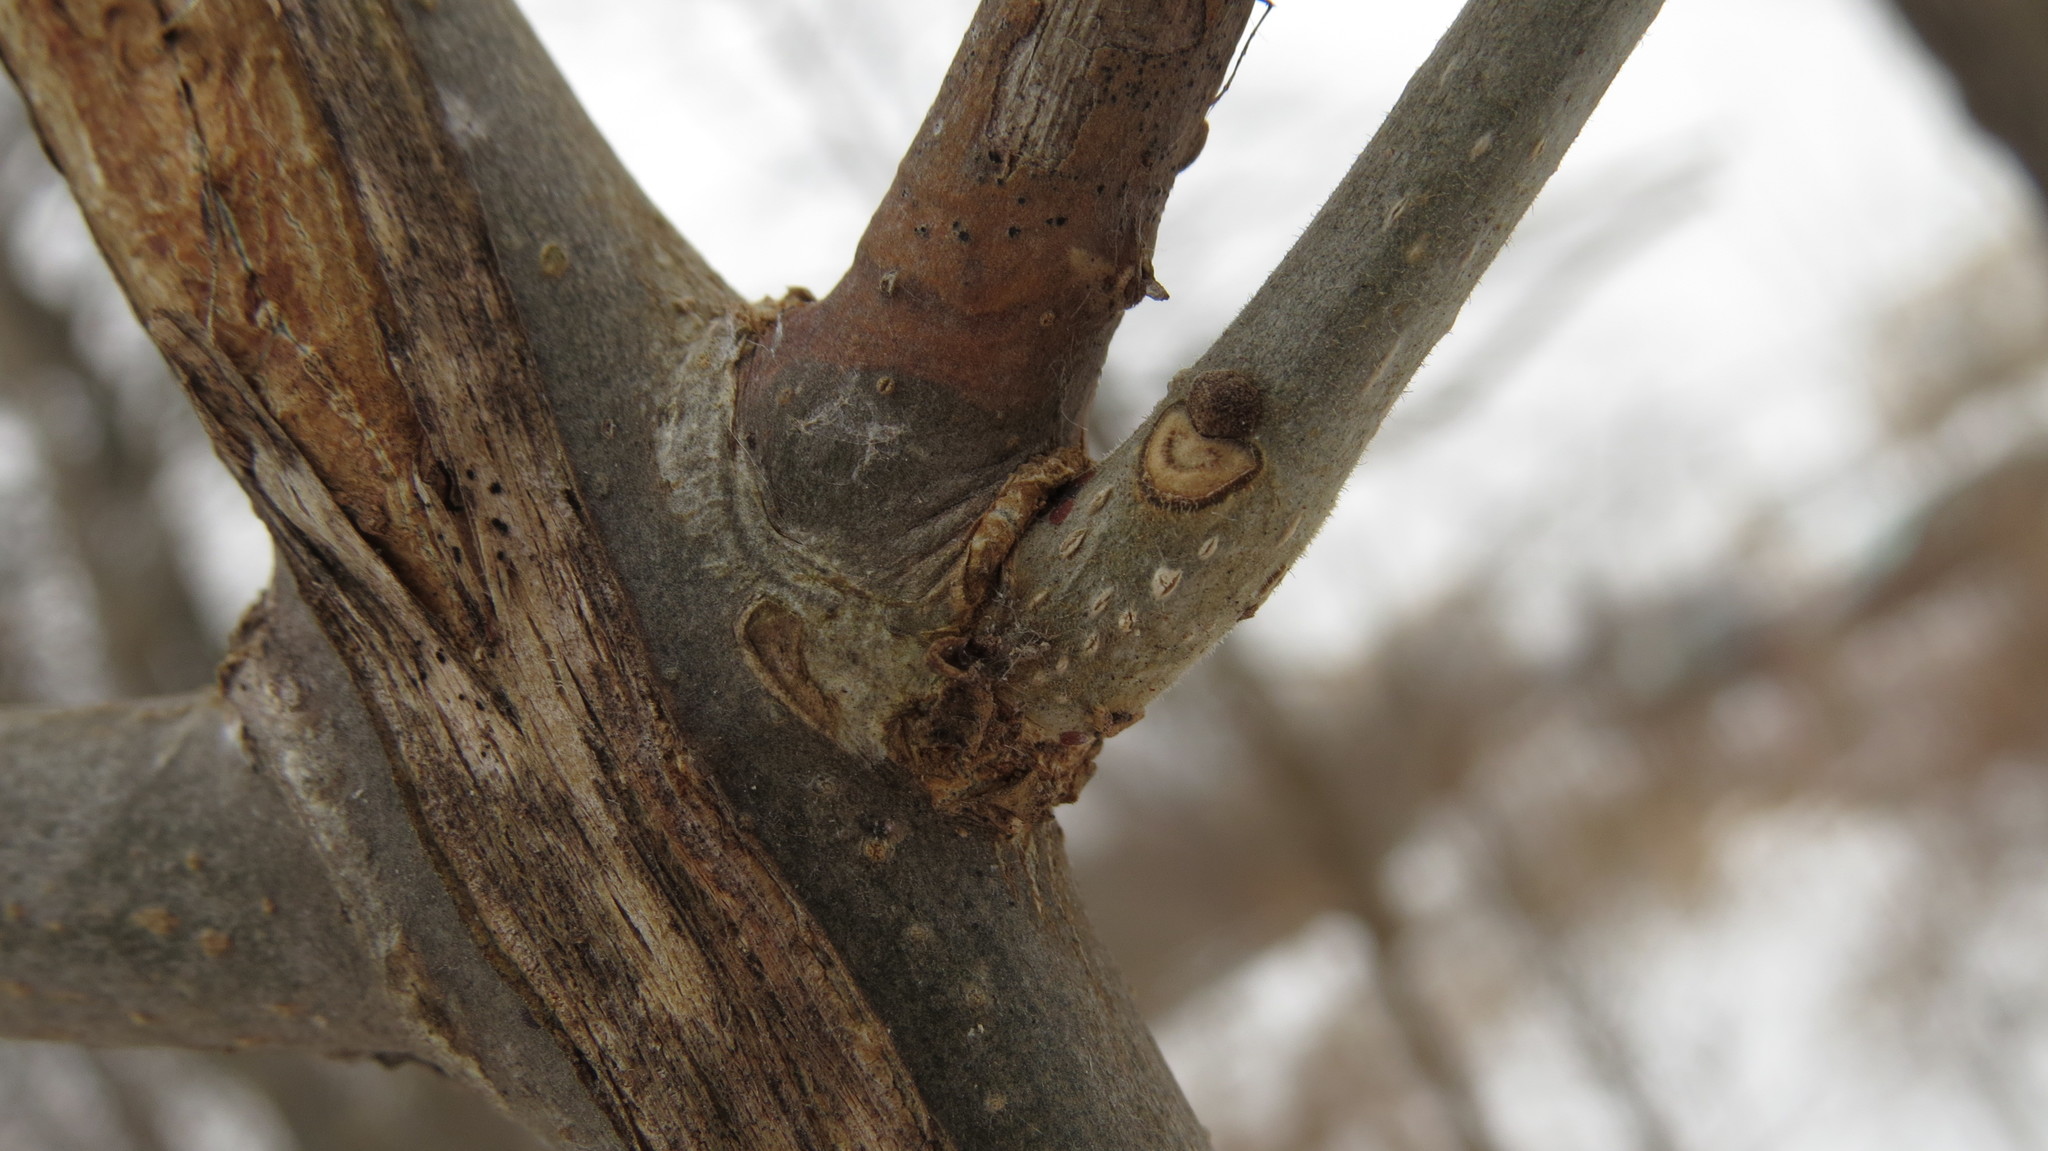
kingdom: Plantae
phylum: Tracheophyta
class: Magnoliopsida
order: Lamiales
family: Oleaceae
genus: Fraxinus
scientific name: Fraxinus pennsylvanica
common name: Green ash
